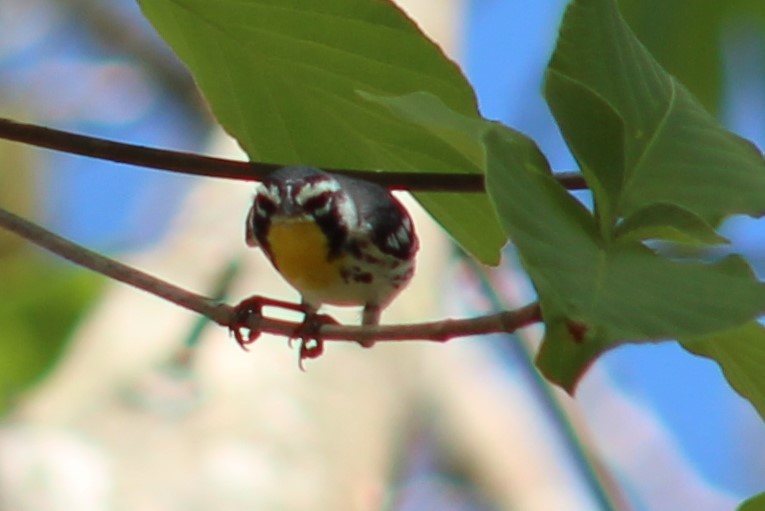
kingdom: Animalia
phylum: Chordata
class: Aves
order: Passeriformes
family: Parulidae
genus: Setophaga
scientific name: Setophaga dominica
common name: Yellow-throated warbler
